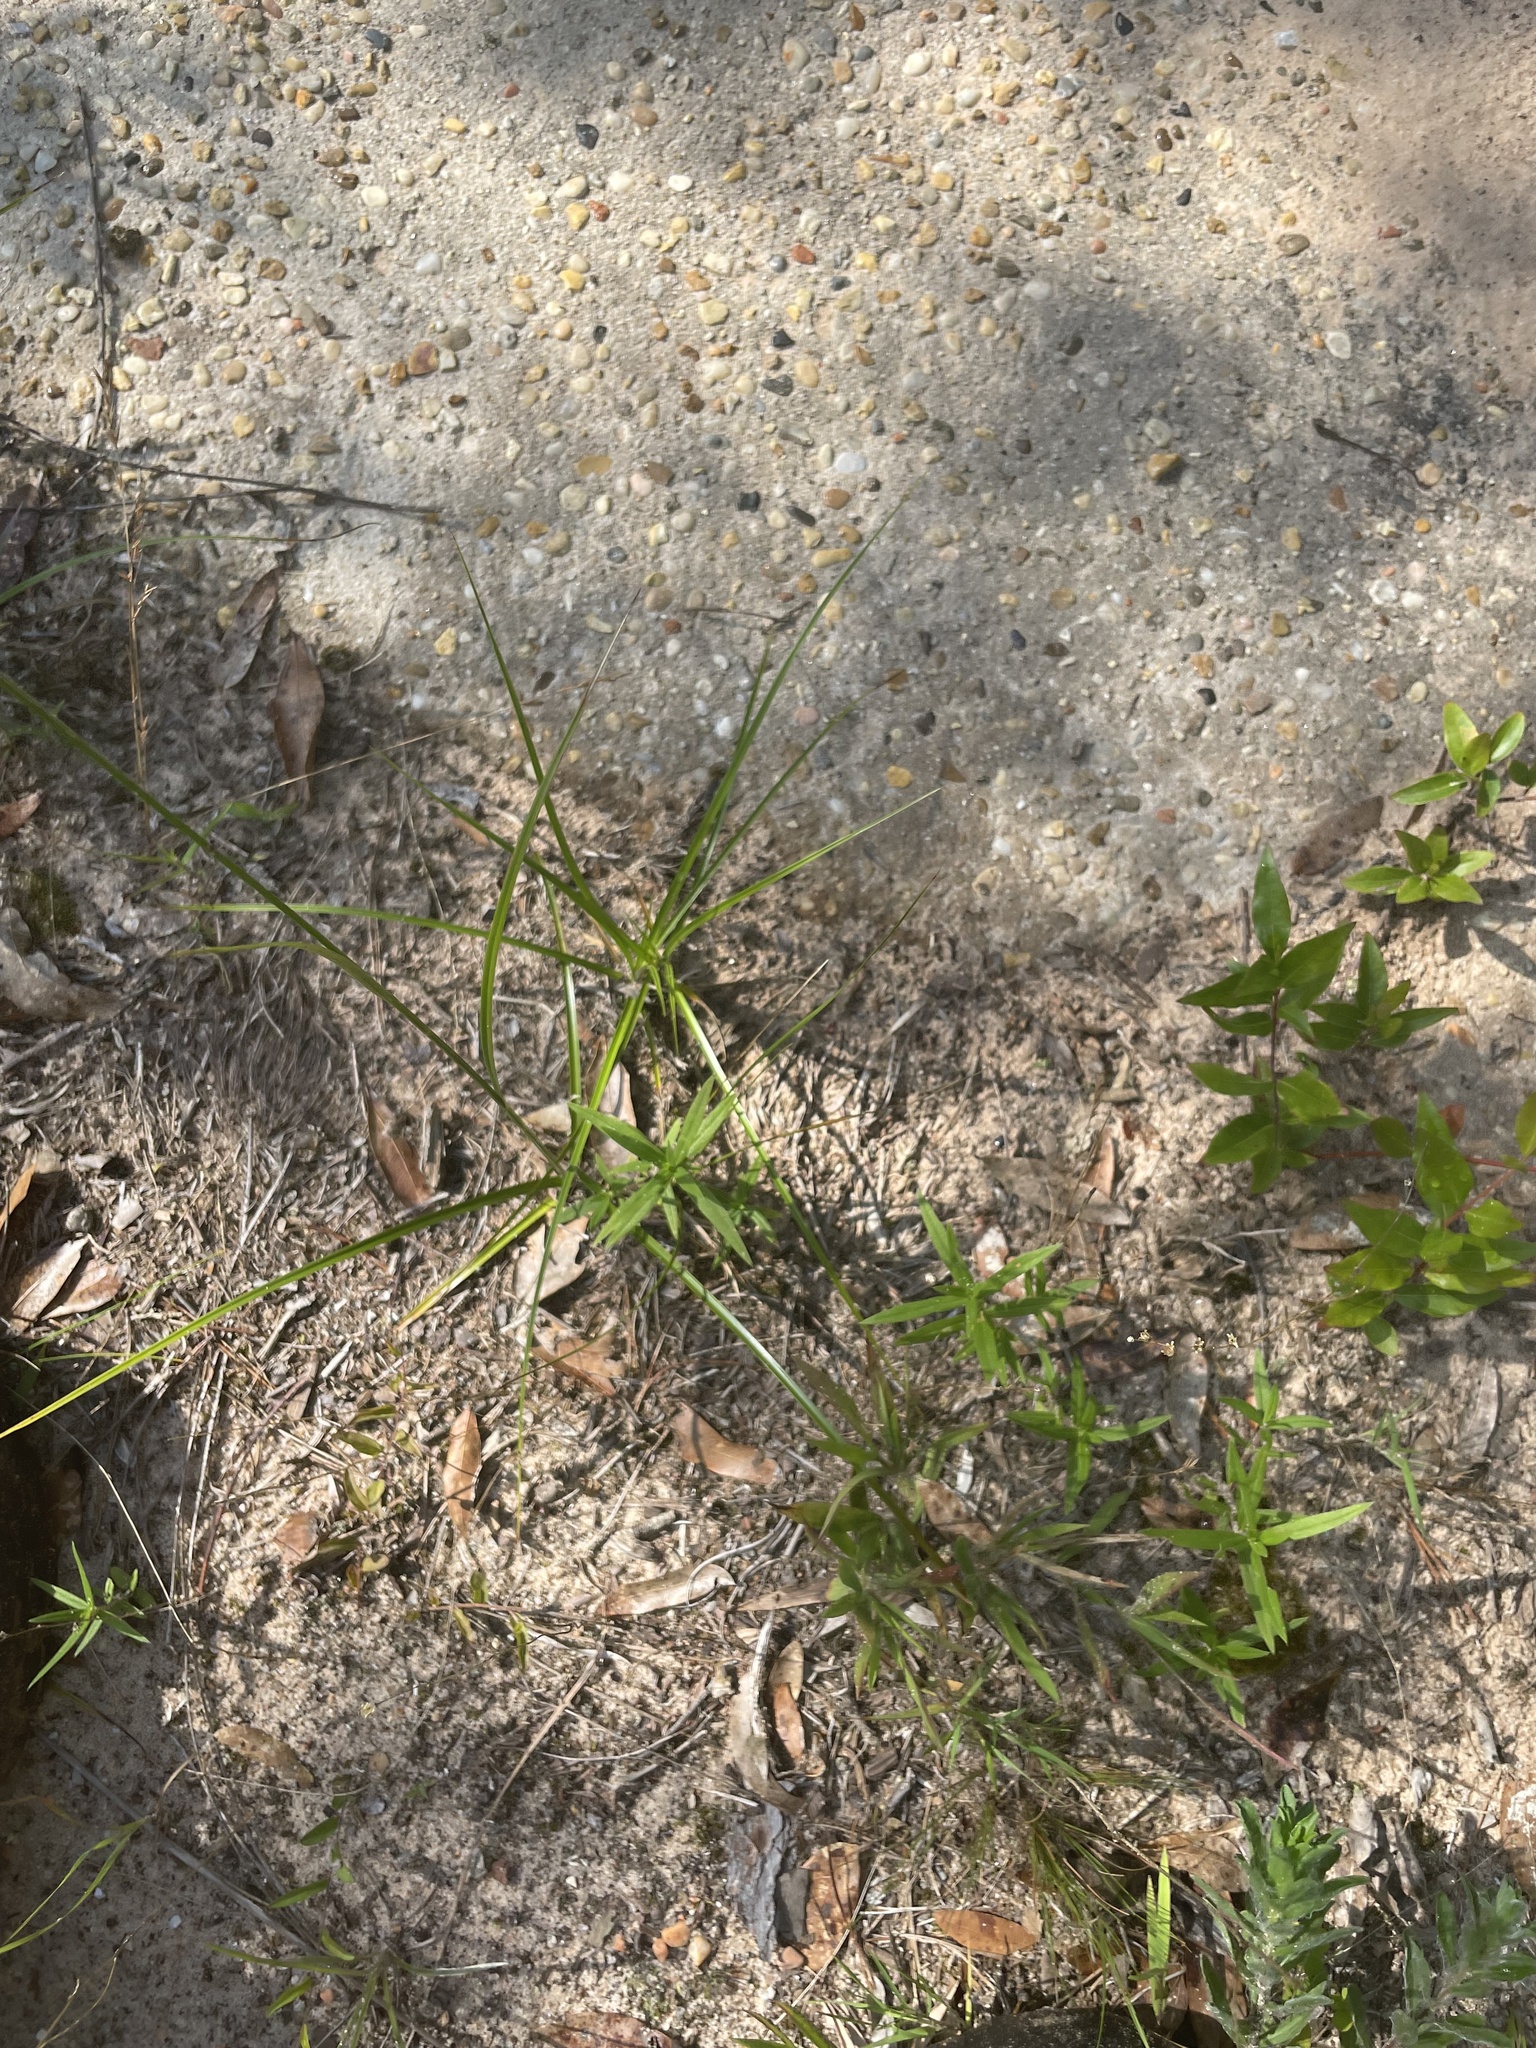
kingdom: Plantae
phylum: Tracheophyta
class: Liliopsida
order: Poales
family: Cyperaceae
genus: Rhynchospora
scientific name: Rhynchospora grayi
